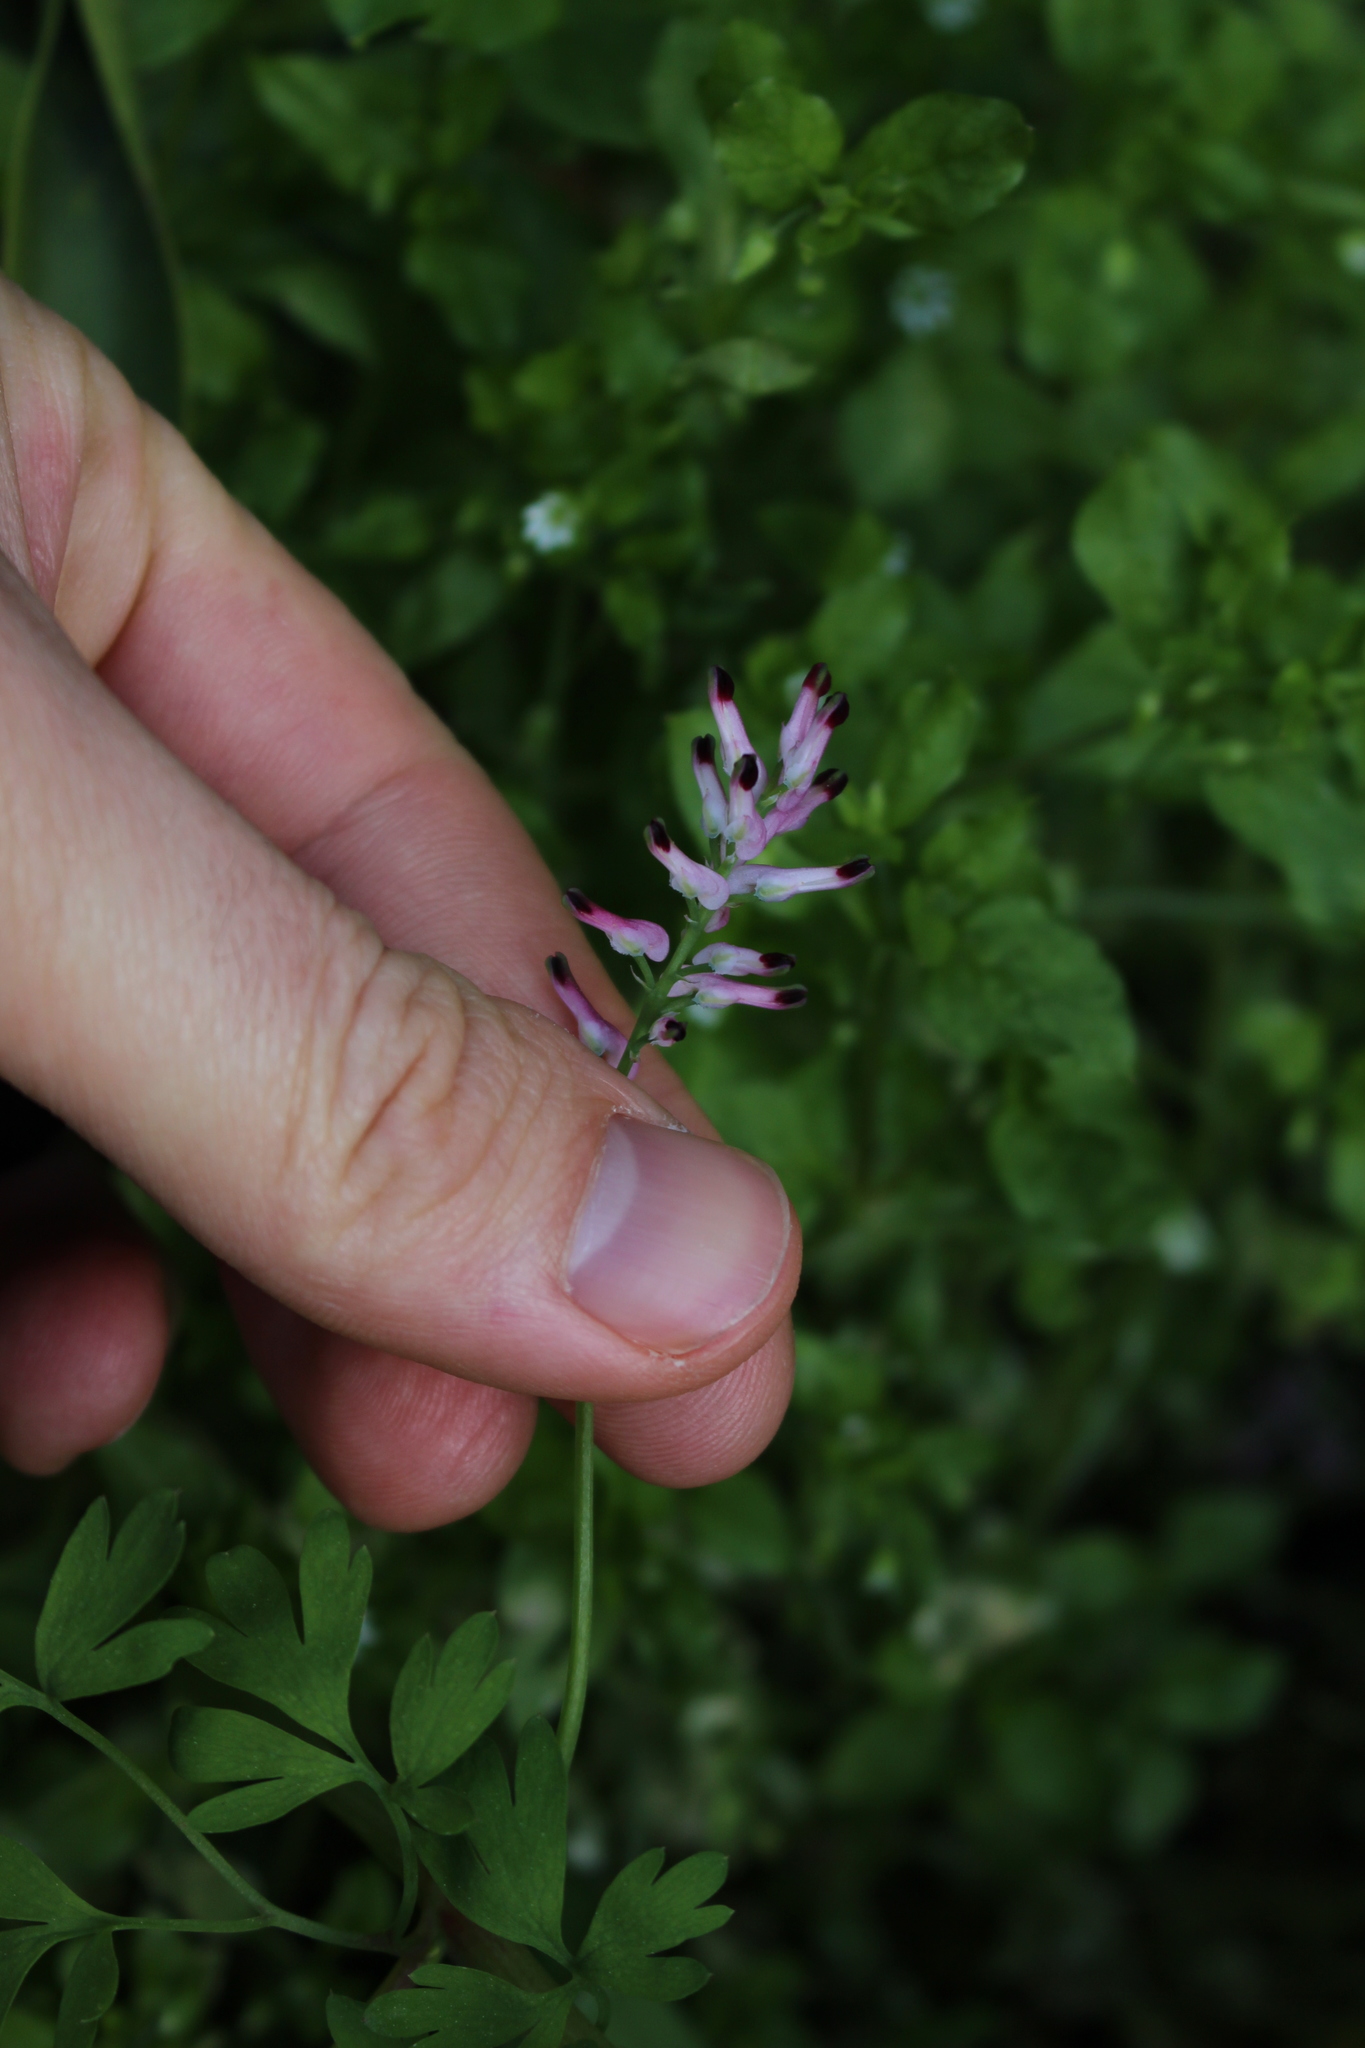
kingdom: Plantae
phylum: Tracheophyta
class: Magnoliopsida
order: Ranunculales
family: Papaveraceae
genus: Fumaria
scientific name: Fumaria muralis
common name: Common ramping-fumitory
